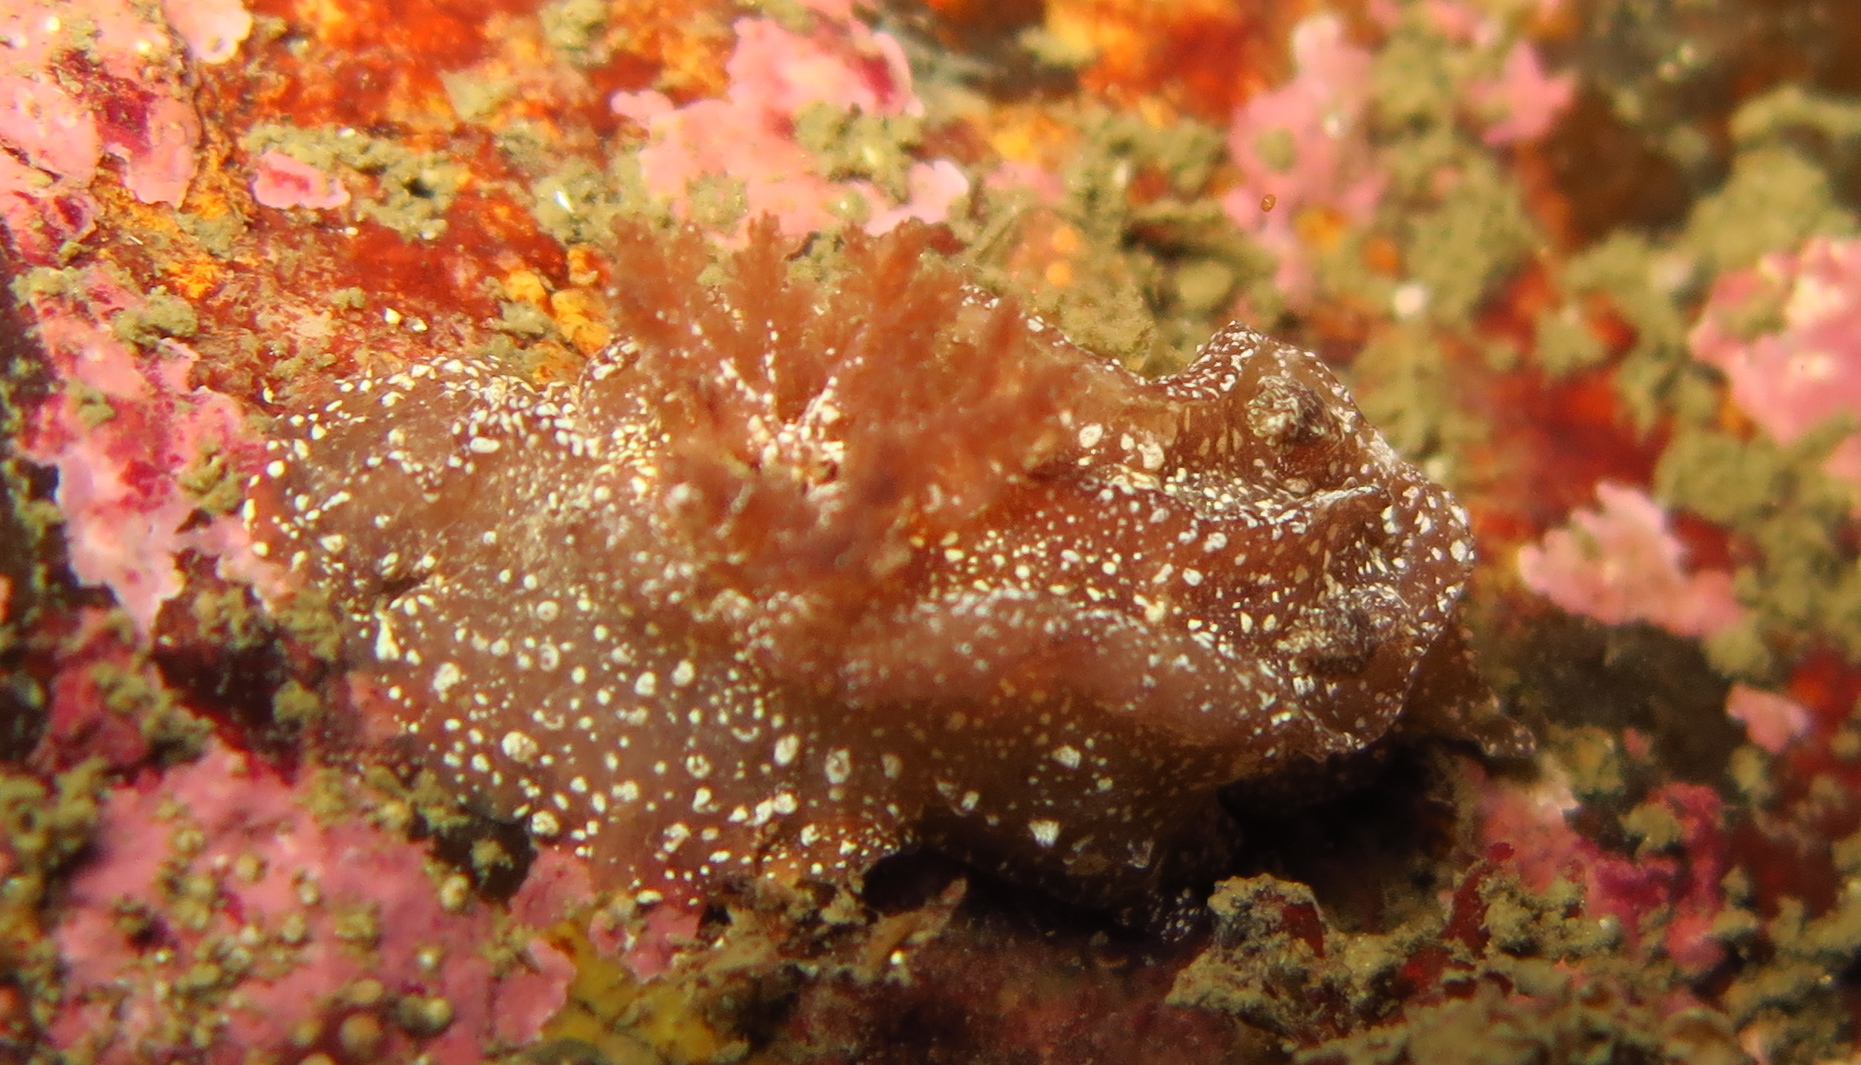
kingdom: Animalia
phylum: Mollusca
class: Gastropoda
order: Nudibranchia
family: Goniodorididae
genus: Pelagella
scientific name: Pelagella castanea
